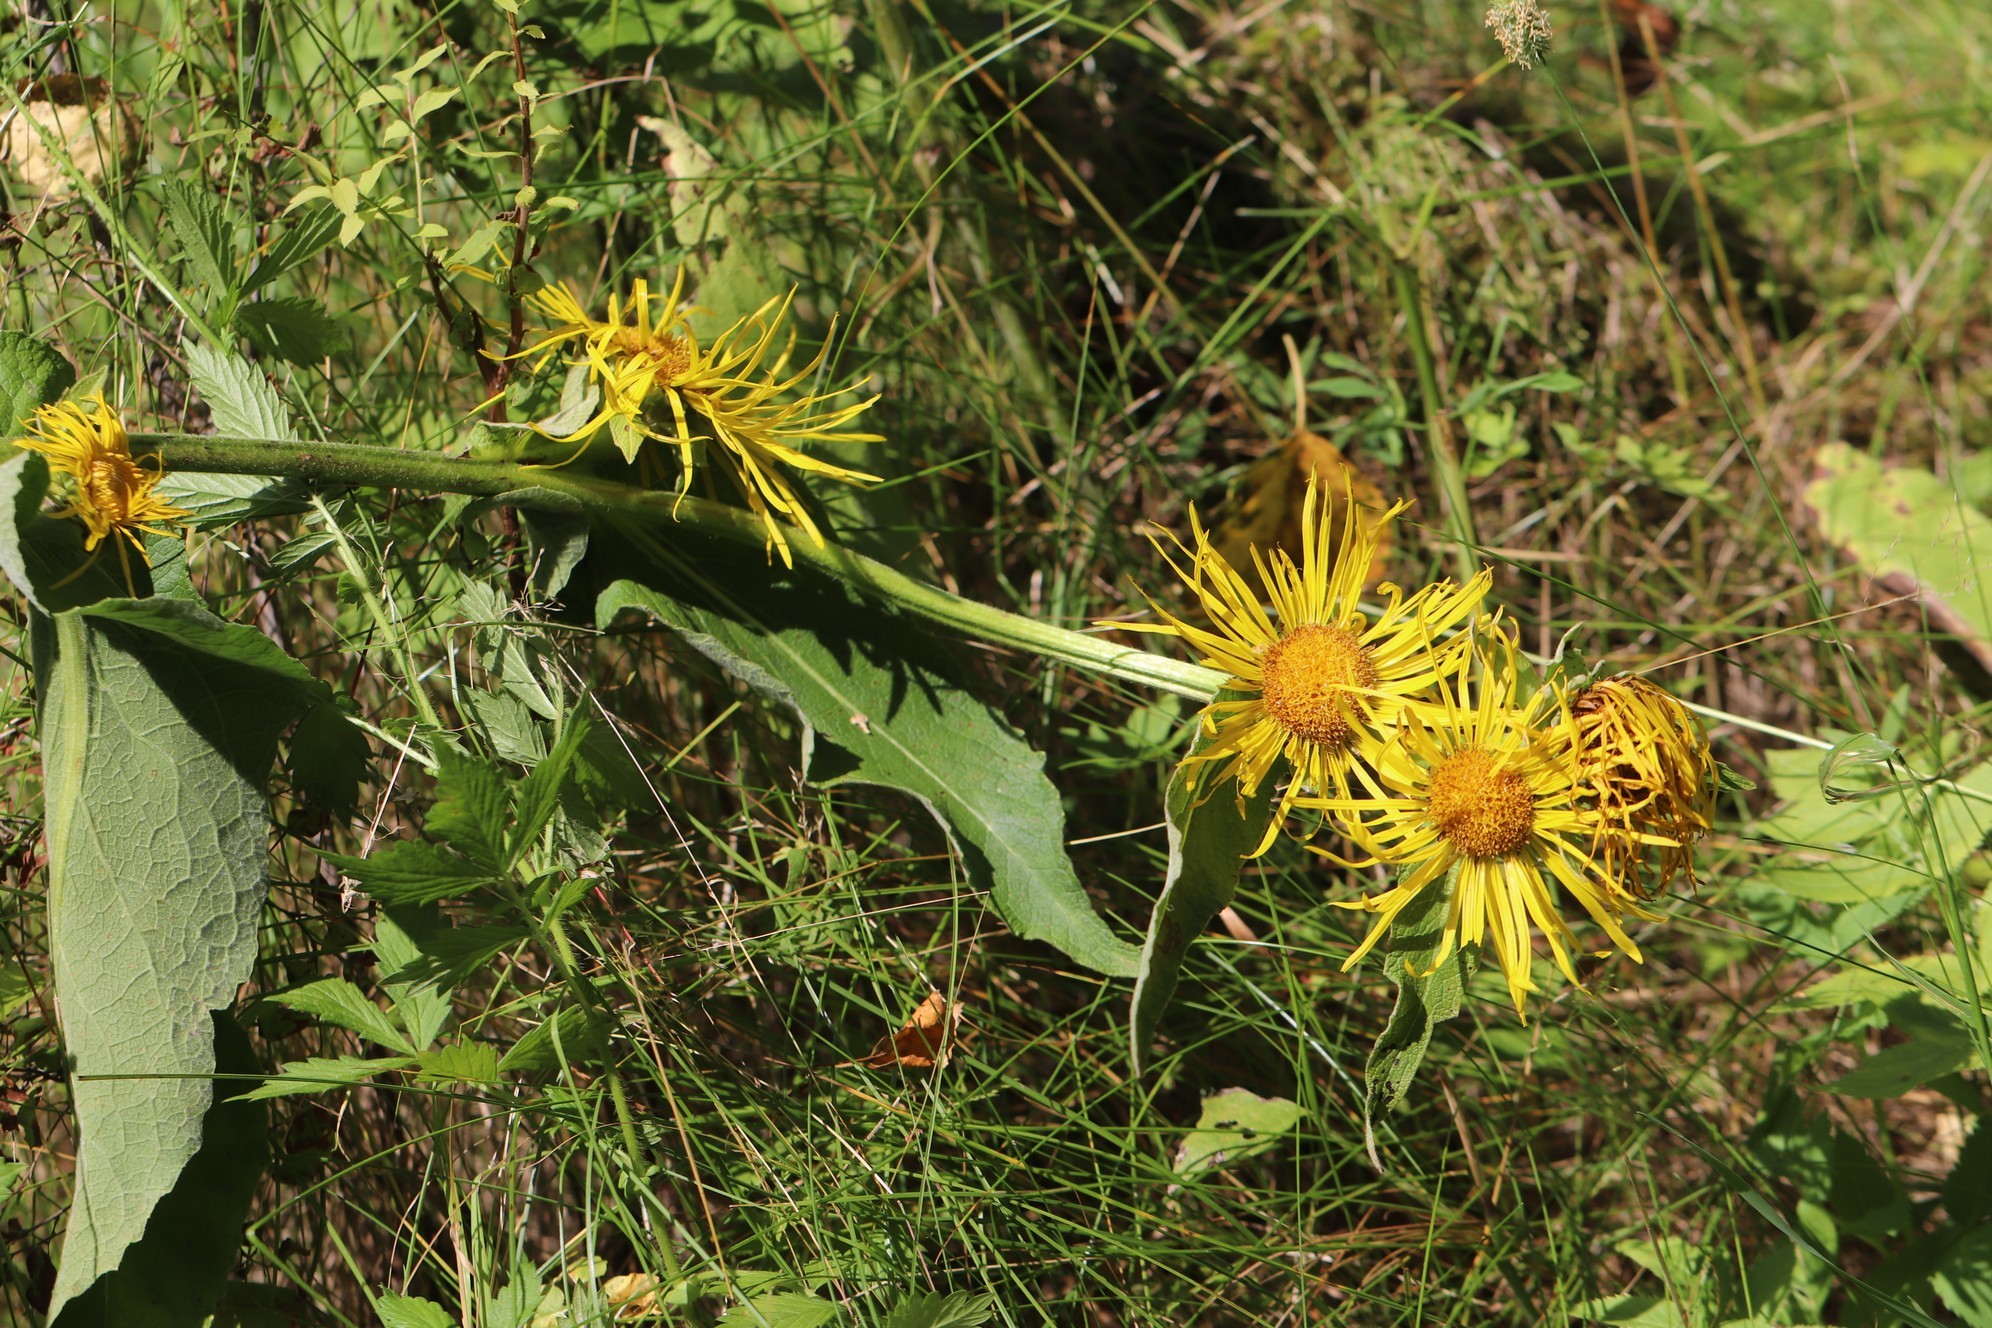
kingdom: Plantae
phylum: Tracheophyta
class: Magnoliopsida
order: Asterales
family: Asteraceae
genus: Inula
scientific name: Inula helenium
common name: Elecampane
